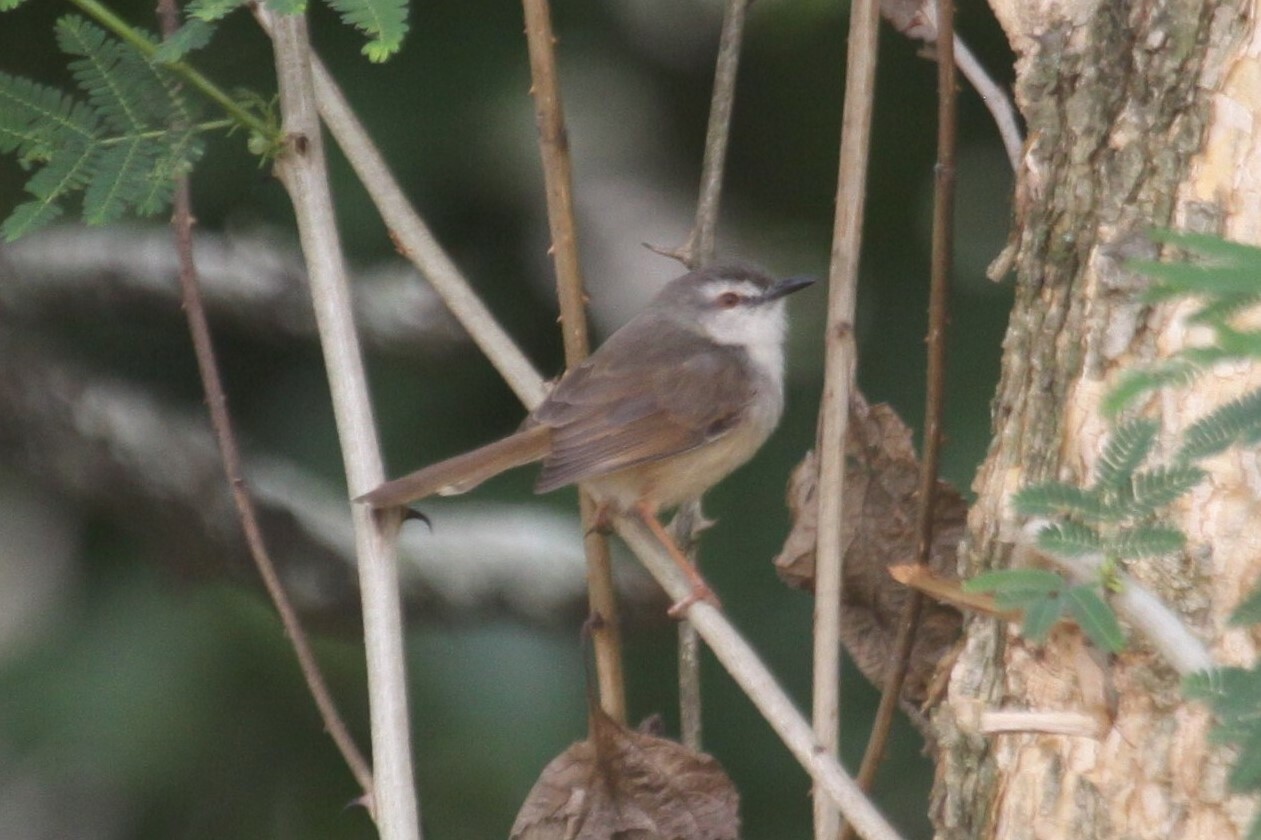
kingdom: Animalia
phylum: Chordata
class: Aves
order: Passeriformes
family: Cisticolidae
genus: Prinia
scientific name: Prinia subflava
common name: Tawny-flanked prinia
